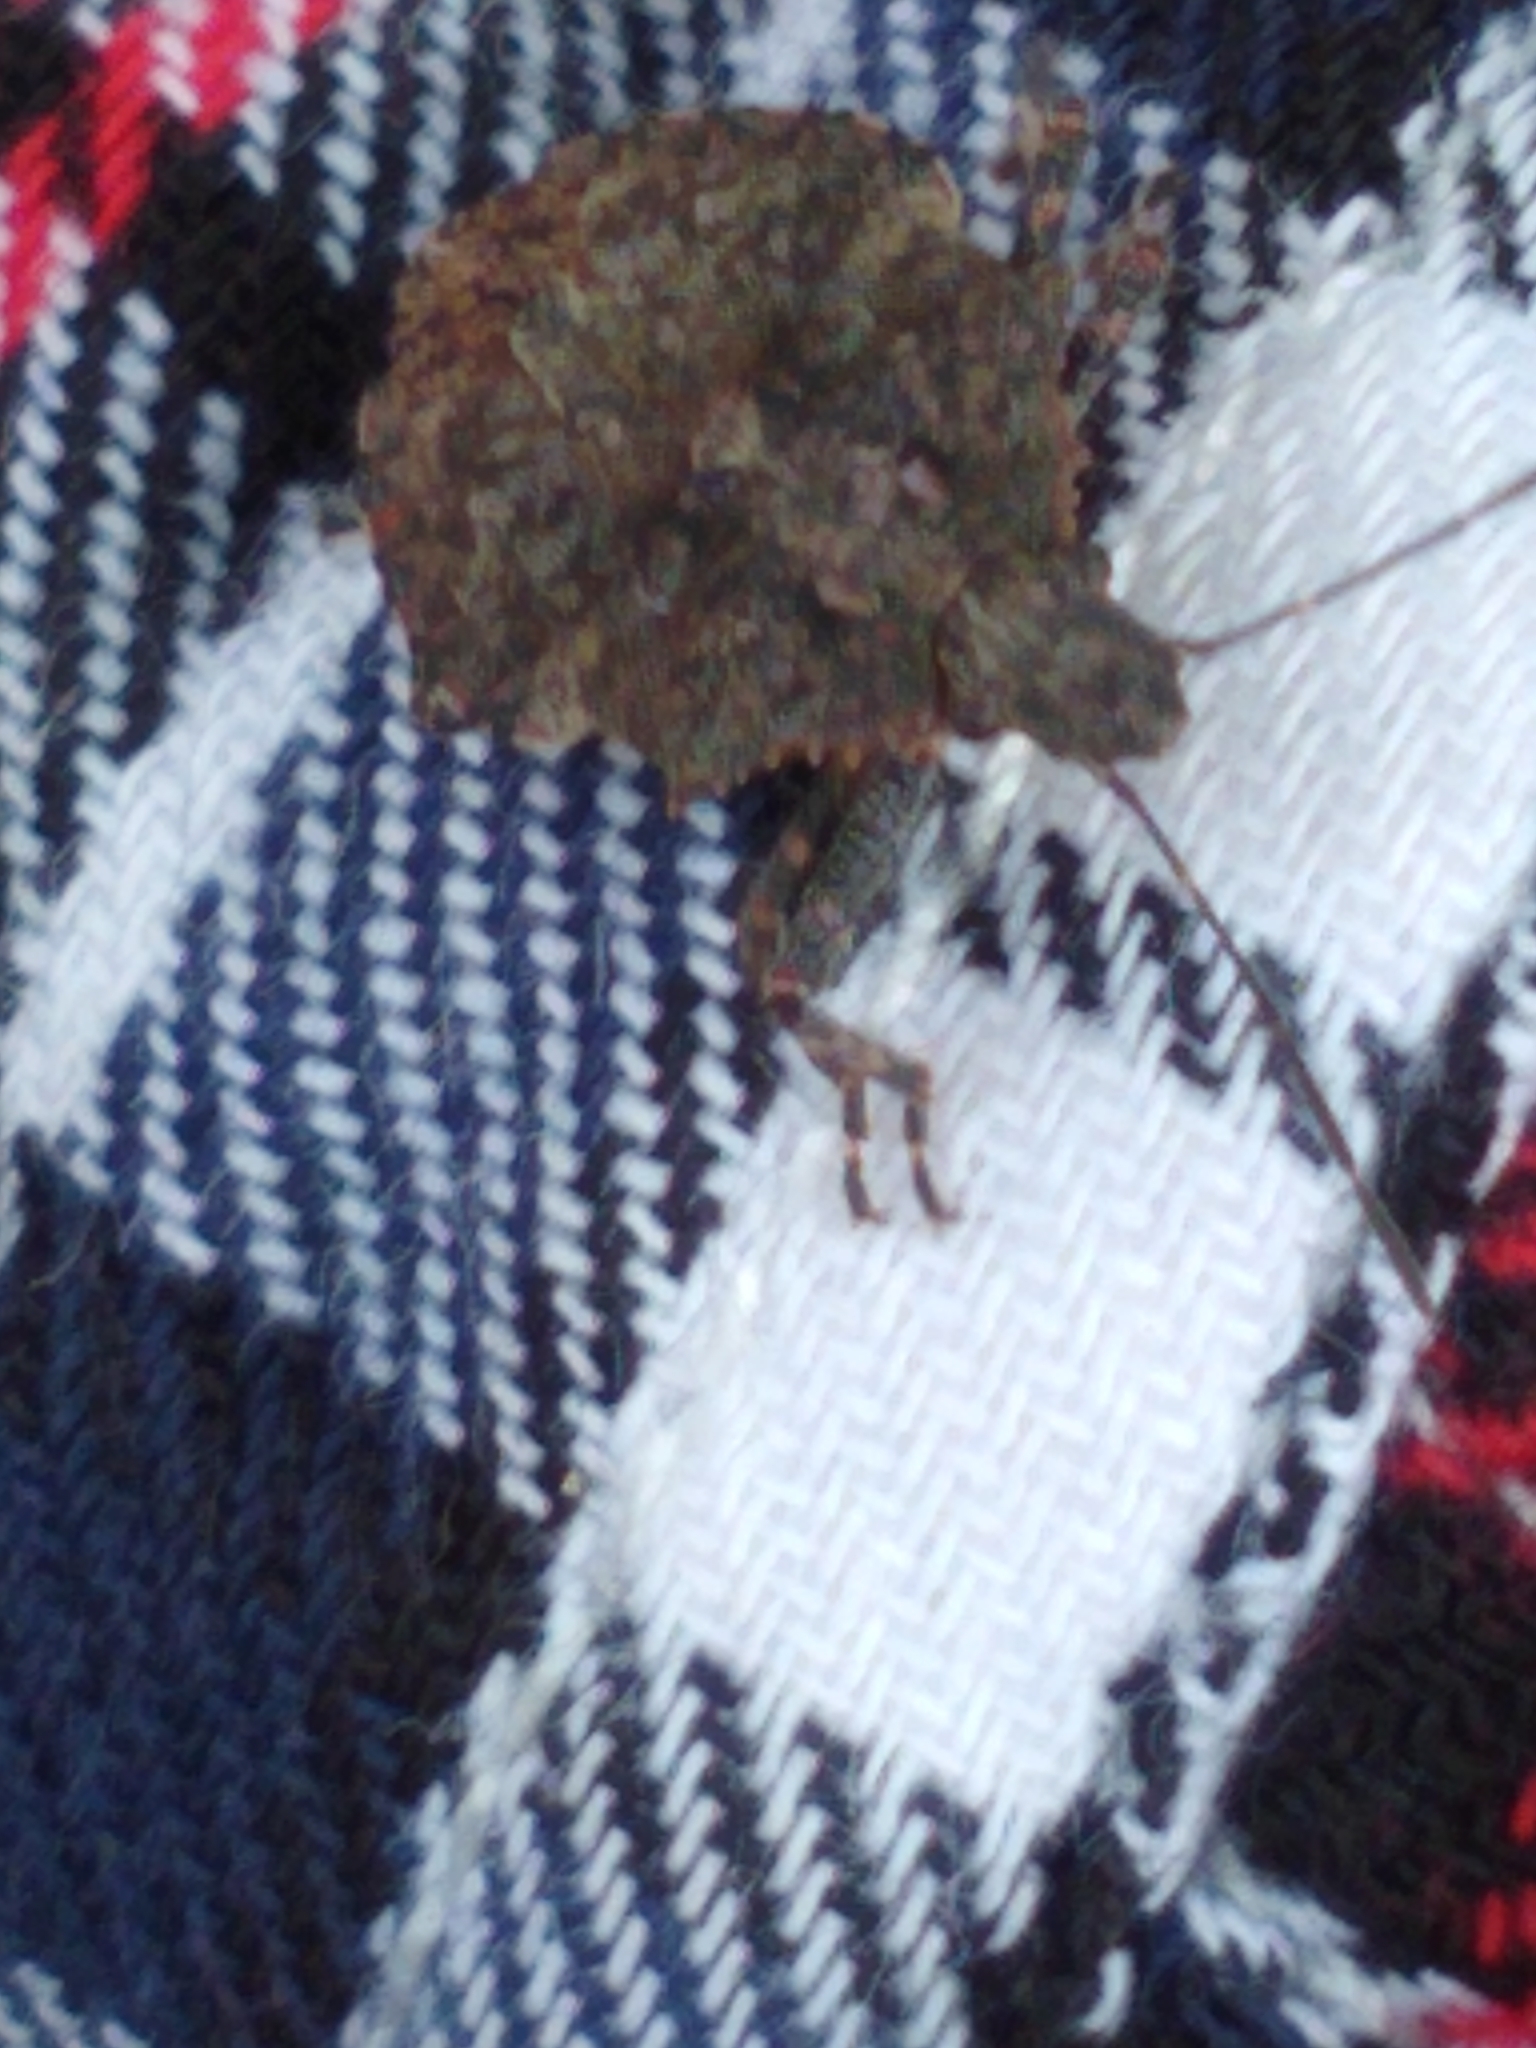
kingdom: Animalia
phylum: Arthropoda
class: Insecta
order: Hemiptera
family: Pentatomidae
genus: Brochymena
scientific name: Brochymena arborea
